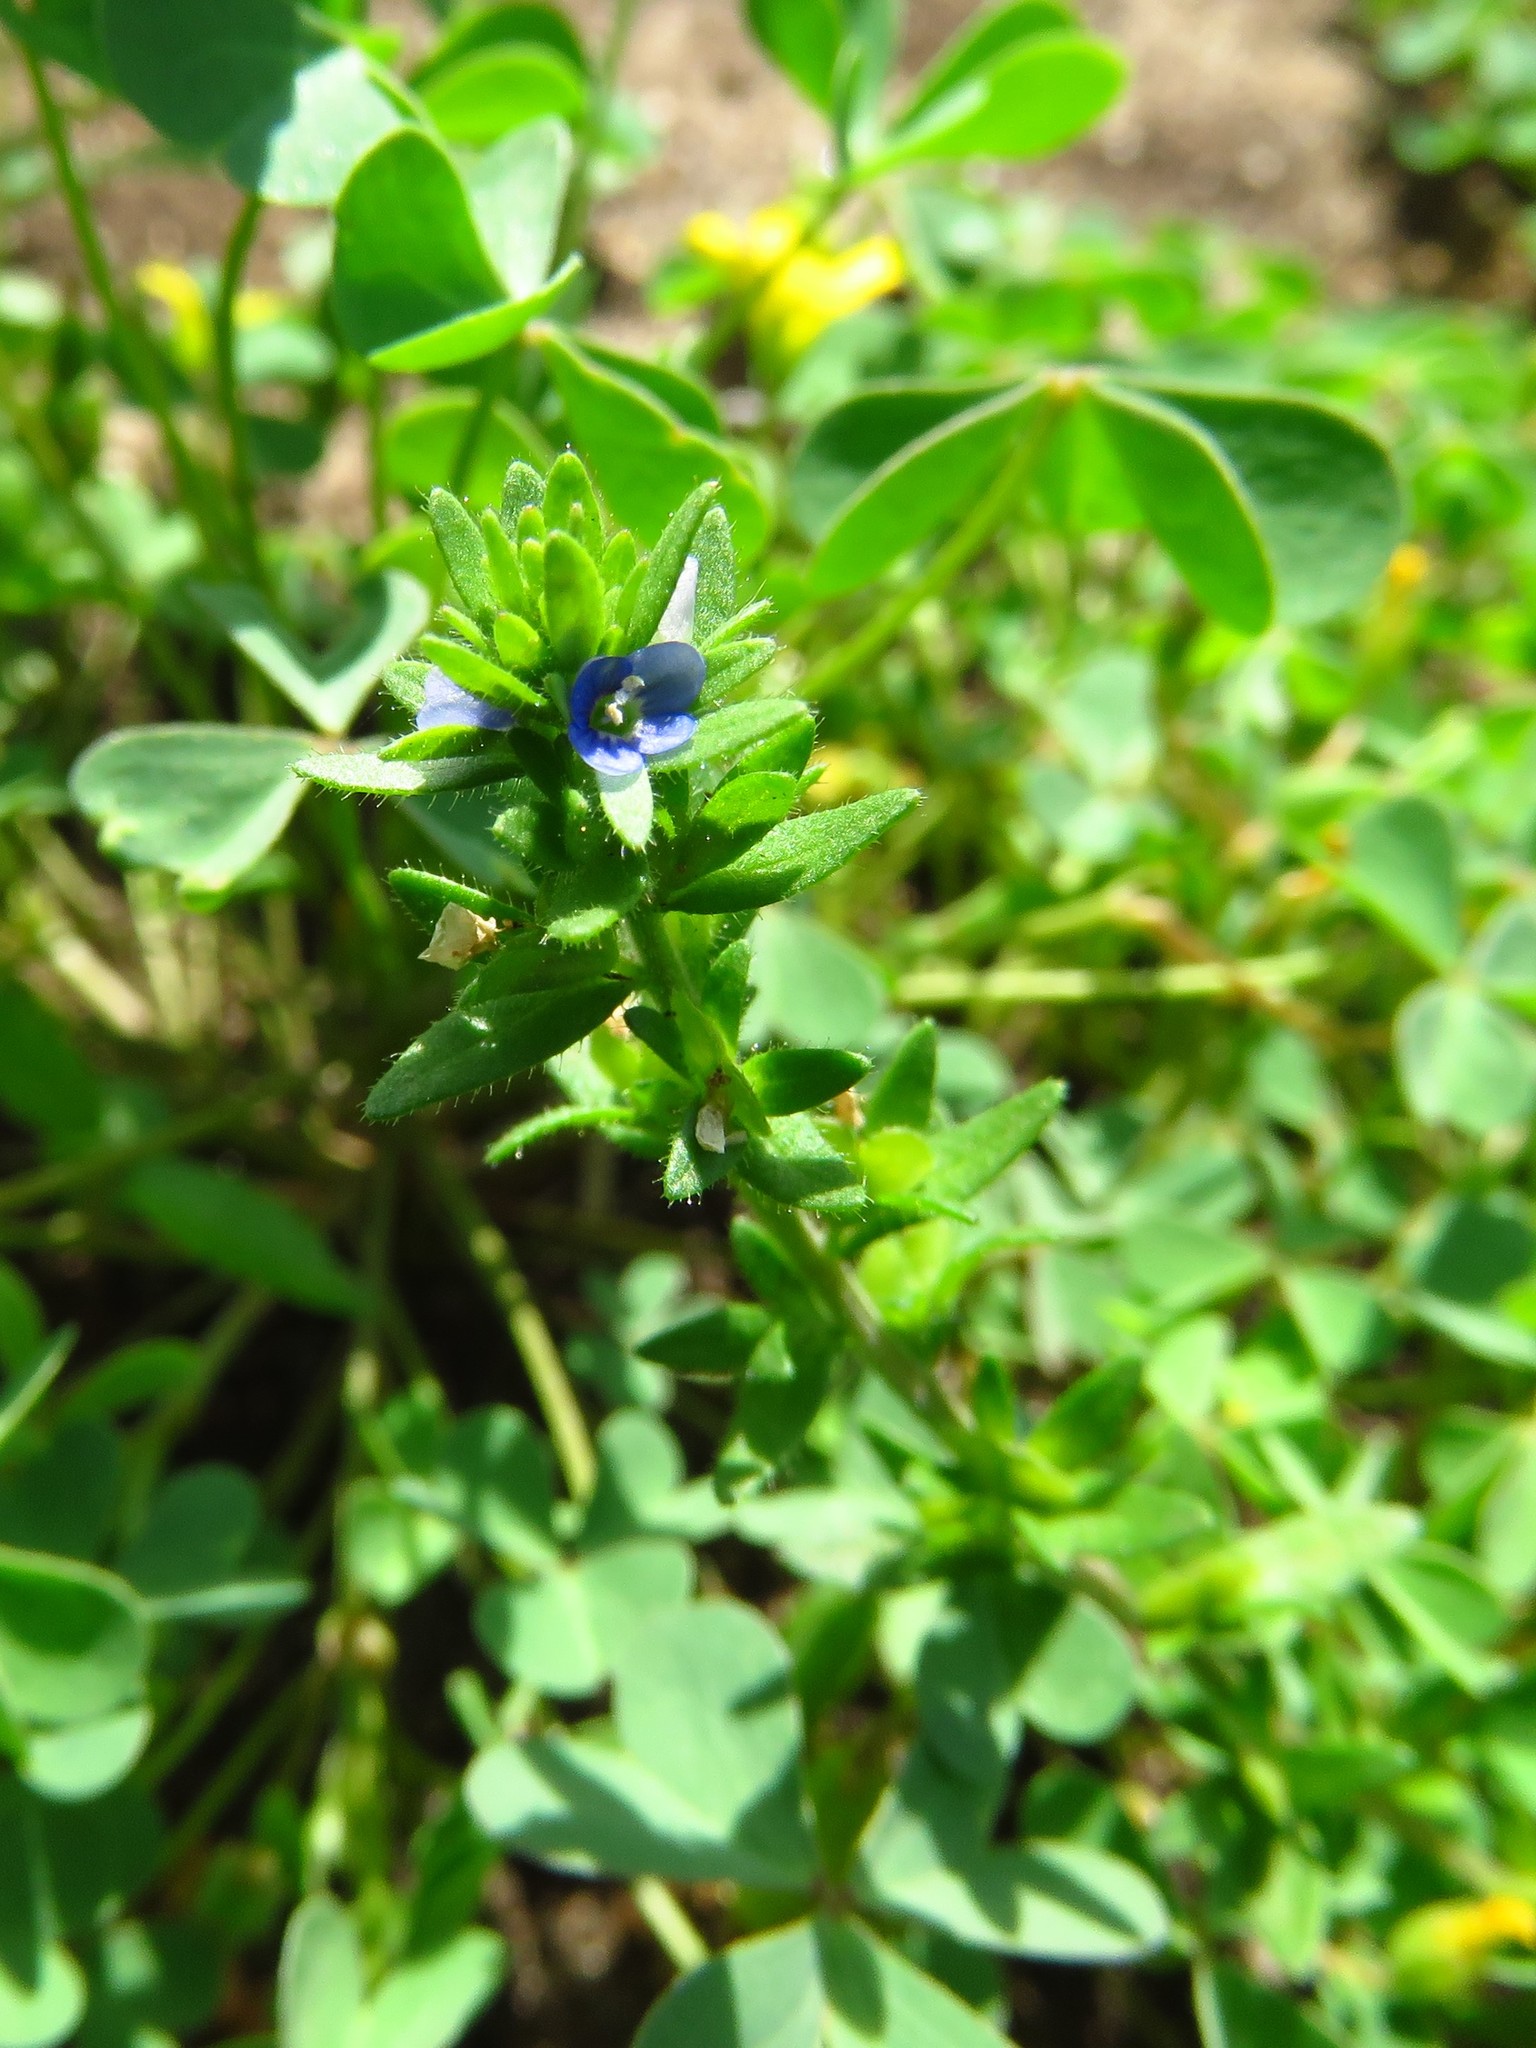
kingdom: Plantae
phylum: Tracheophyta
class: Magnoliopsida
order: Lamiales
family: Plantaginaceae
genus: Veronica
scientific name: Veronica arvensis
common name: Corn speedwell
